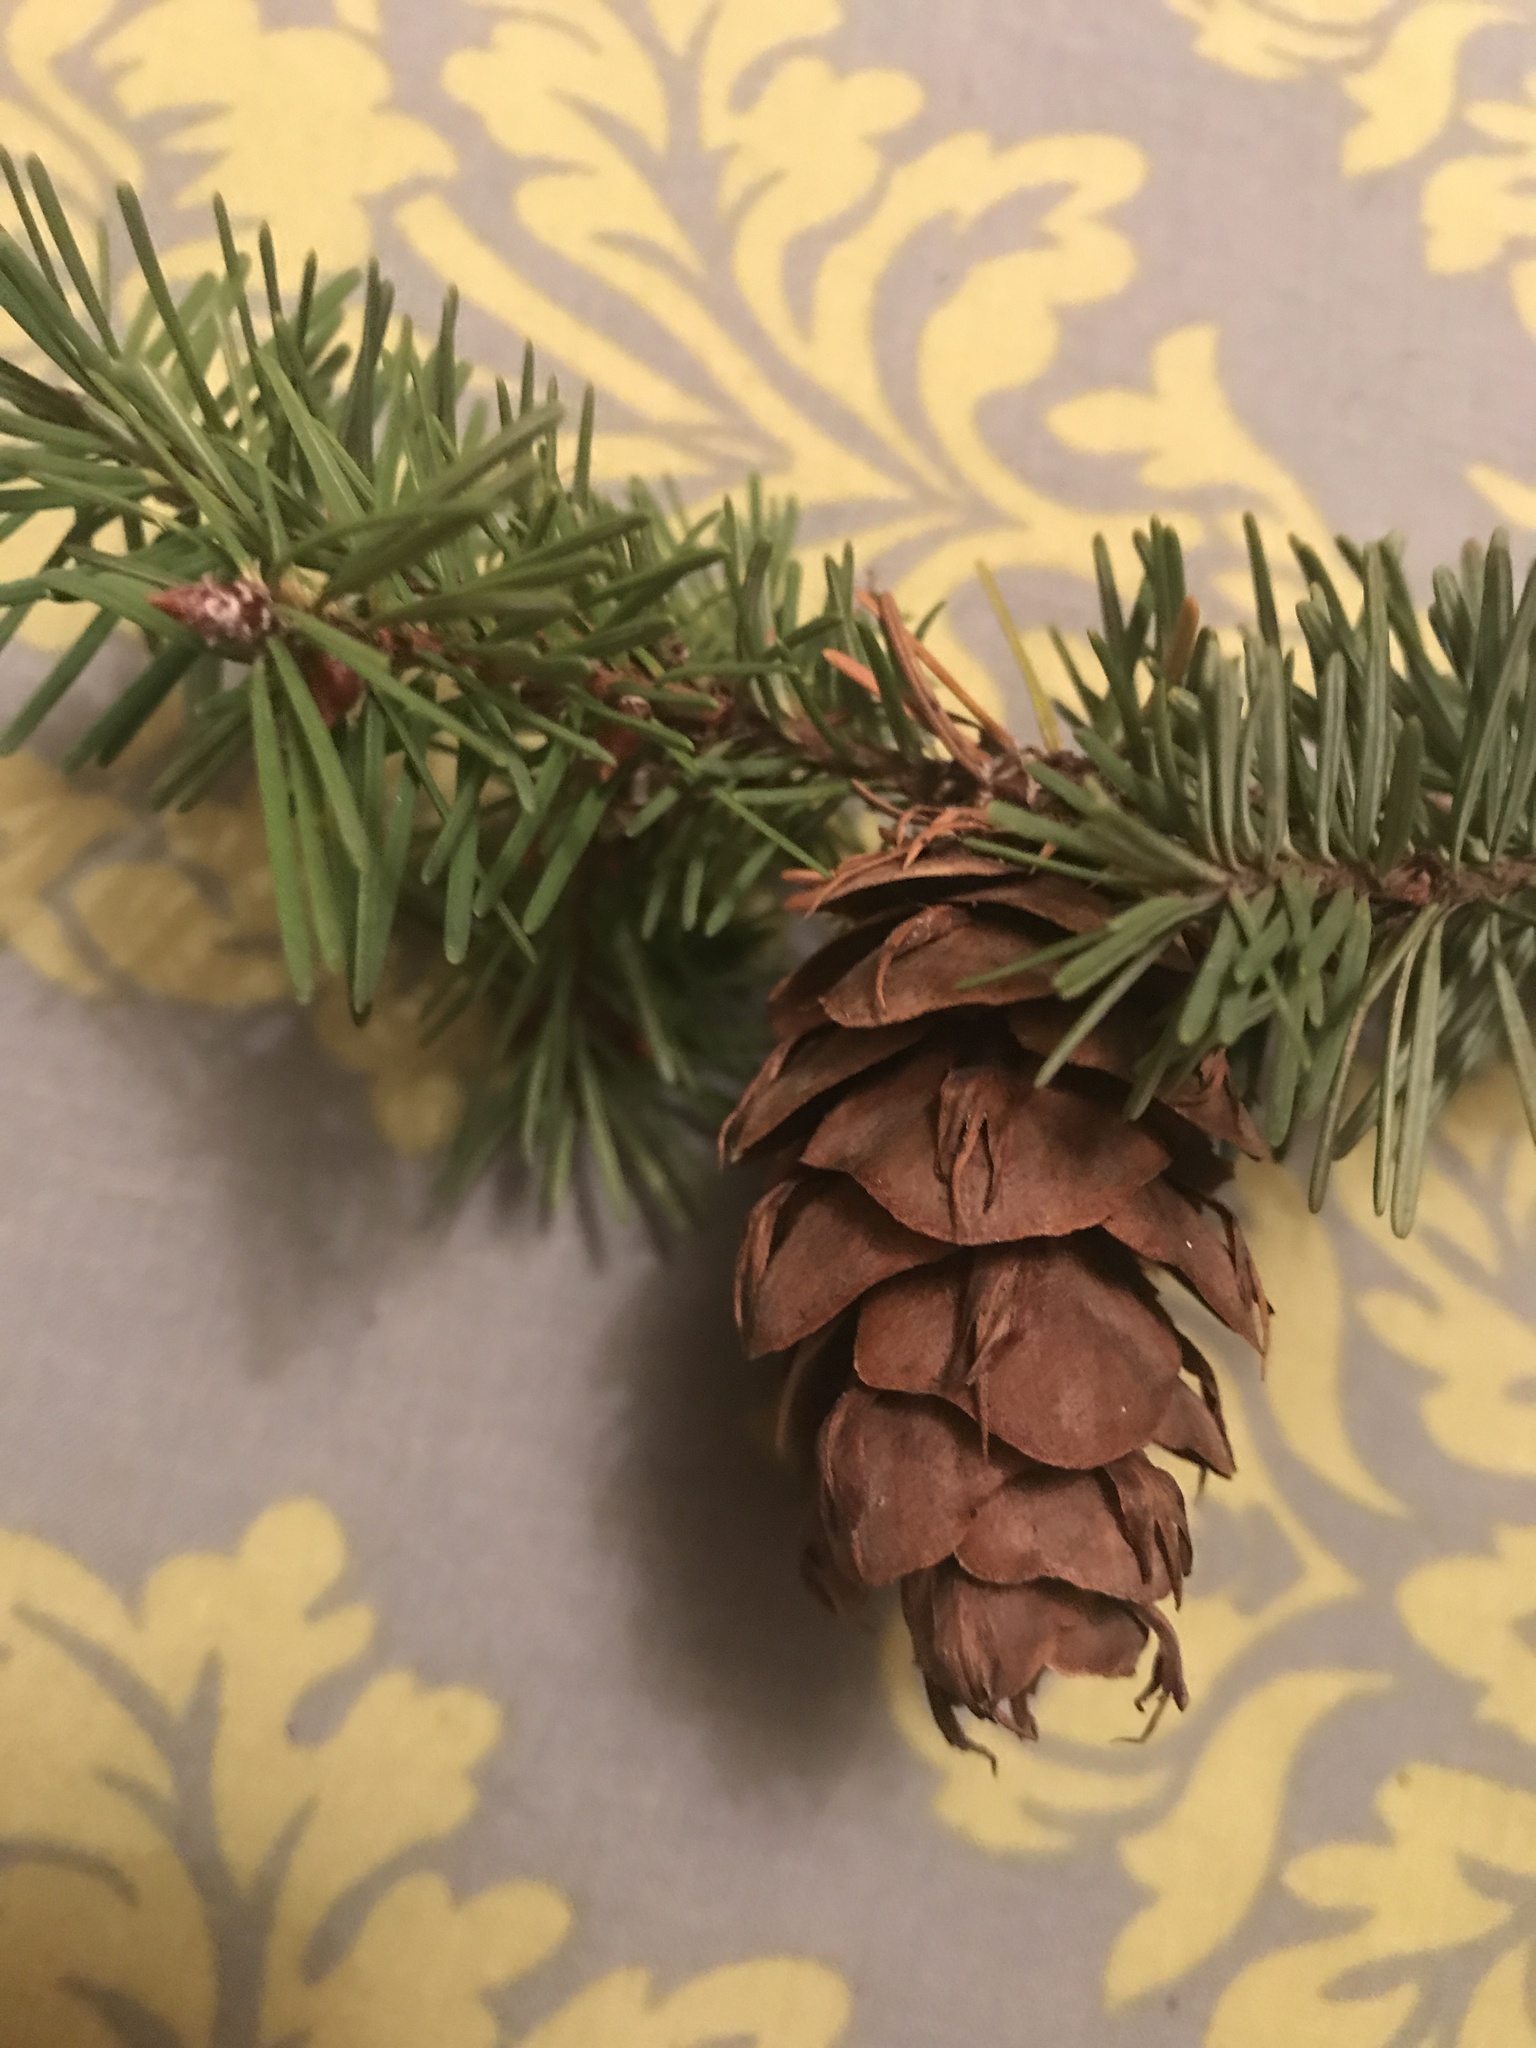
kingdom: Plantae
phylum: Tracheophyta
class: Pinopsida
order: Pinales
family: Pinaceae
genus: Pseudotsuga
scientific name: Pseudotsuga menziesii
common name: Douglas fir
